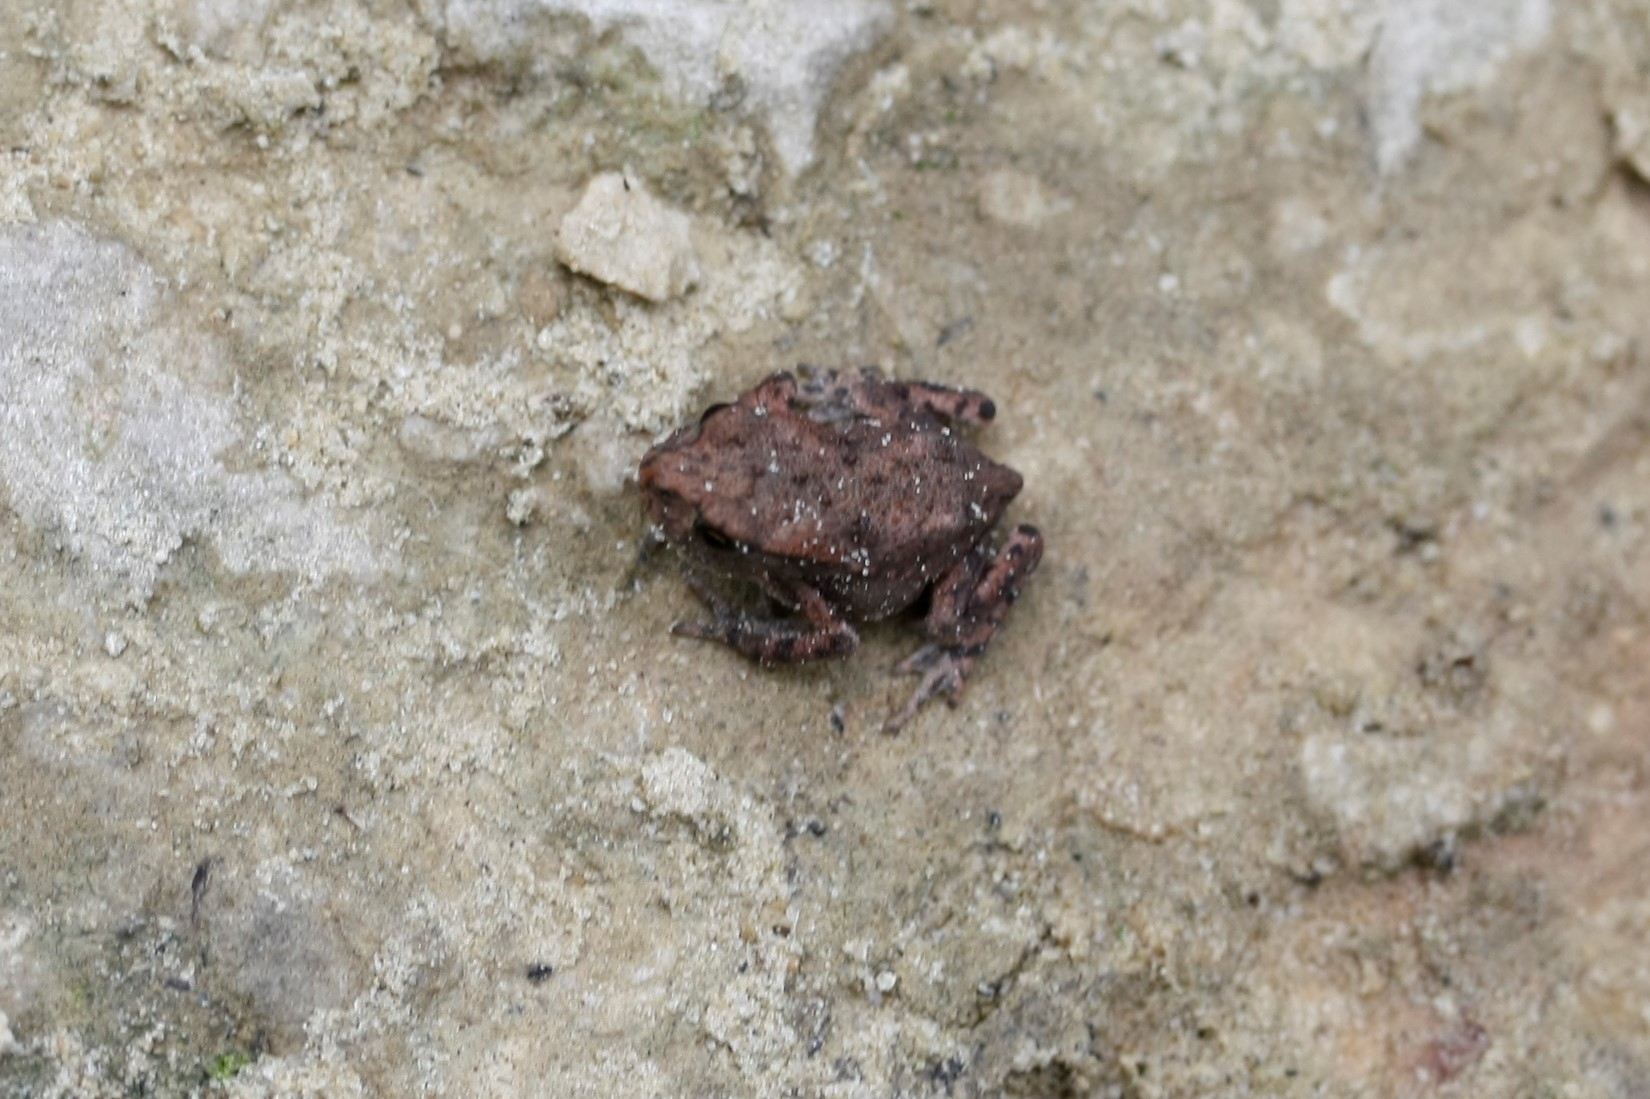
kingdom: Animalia
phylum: Chordata
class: Amphibia
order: Anura
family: Bufonidae
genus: Bufo
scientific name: Bufo bufo
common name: Common toad
